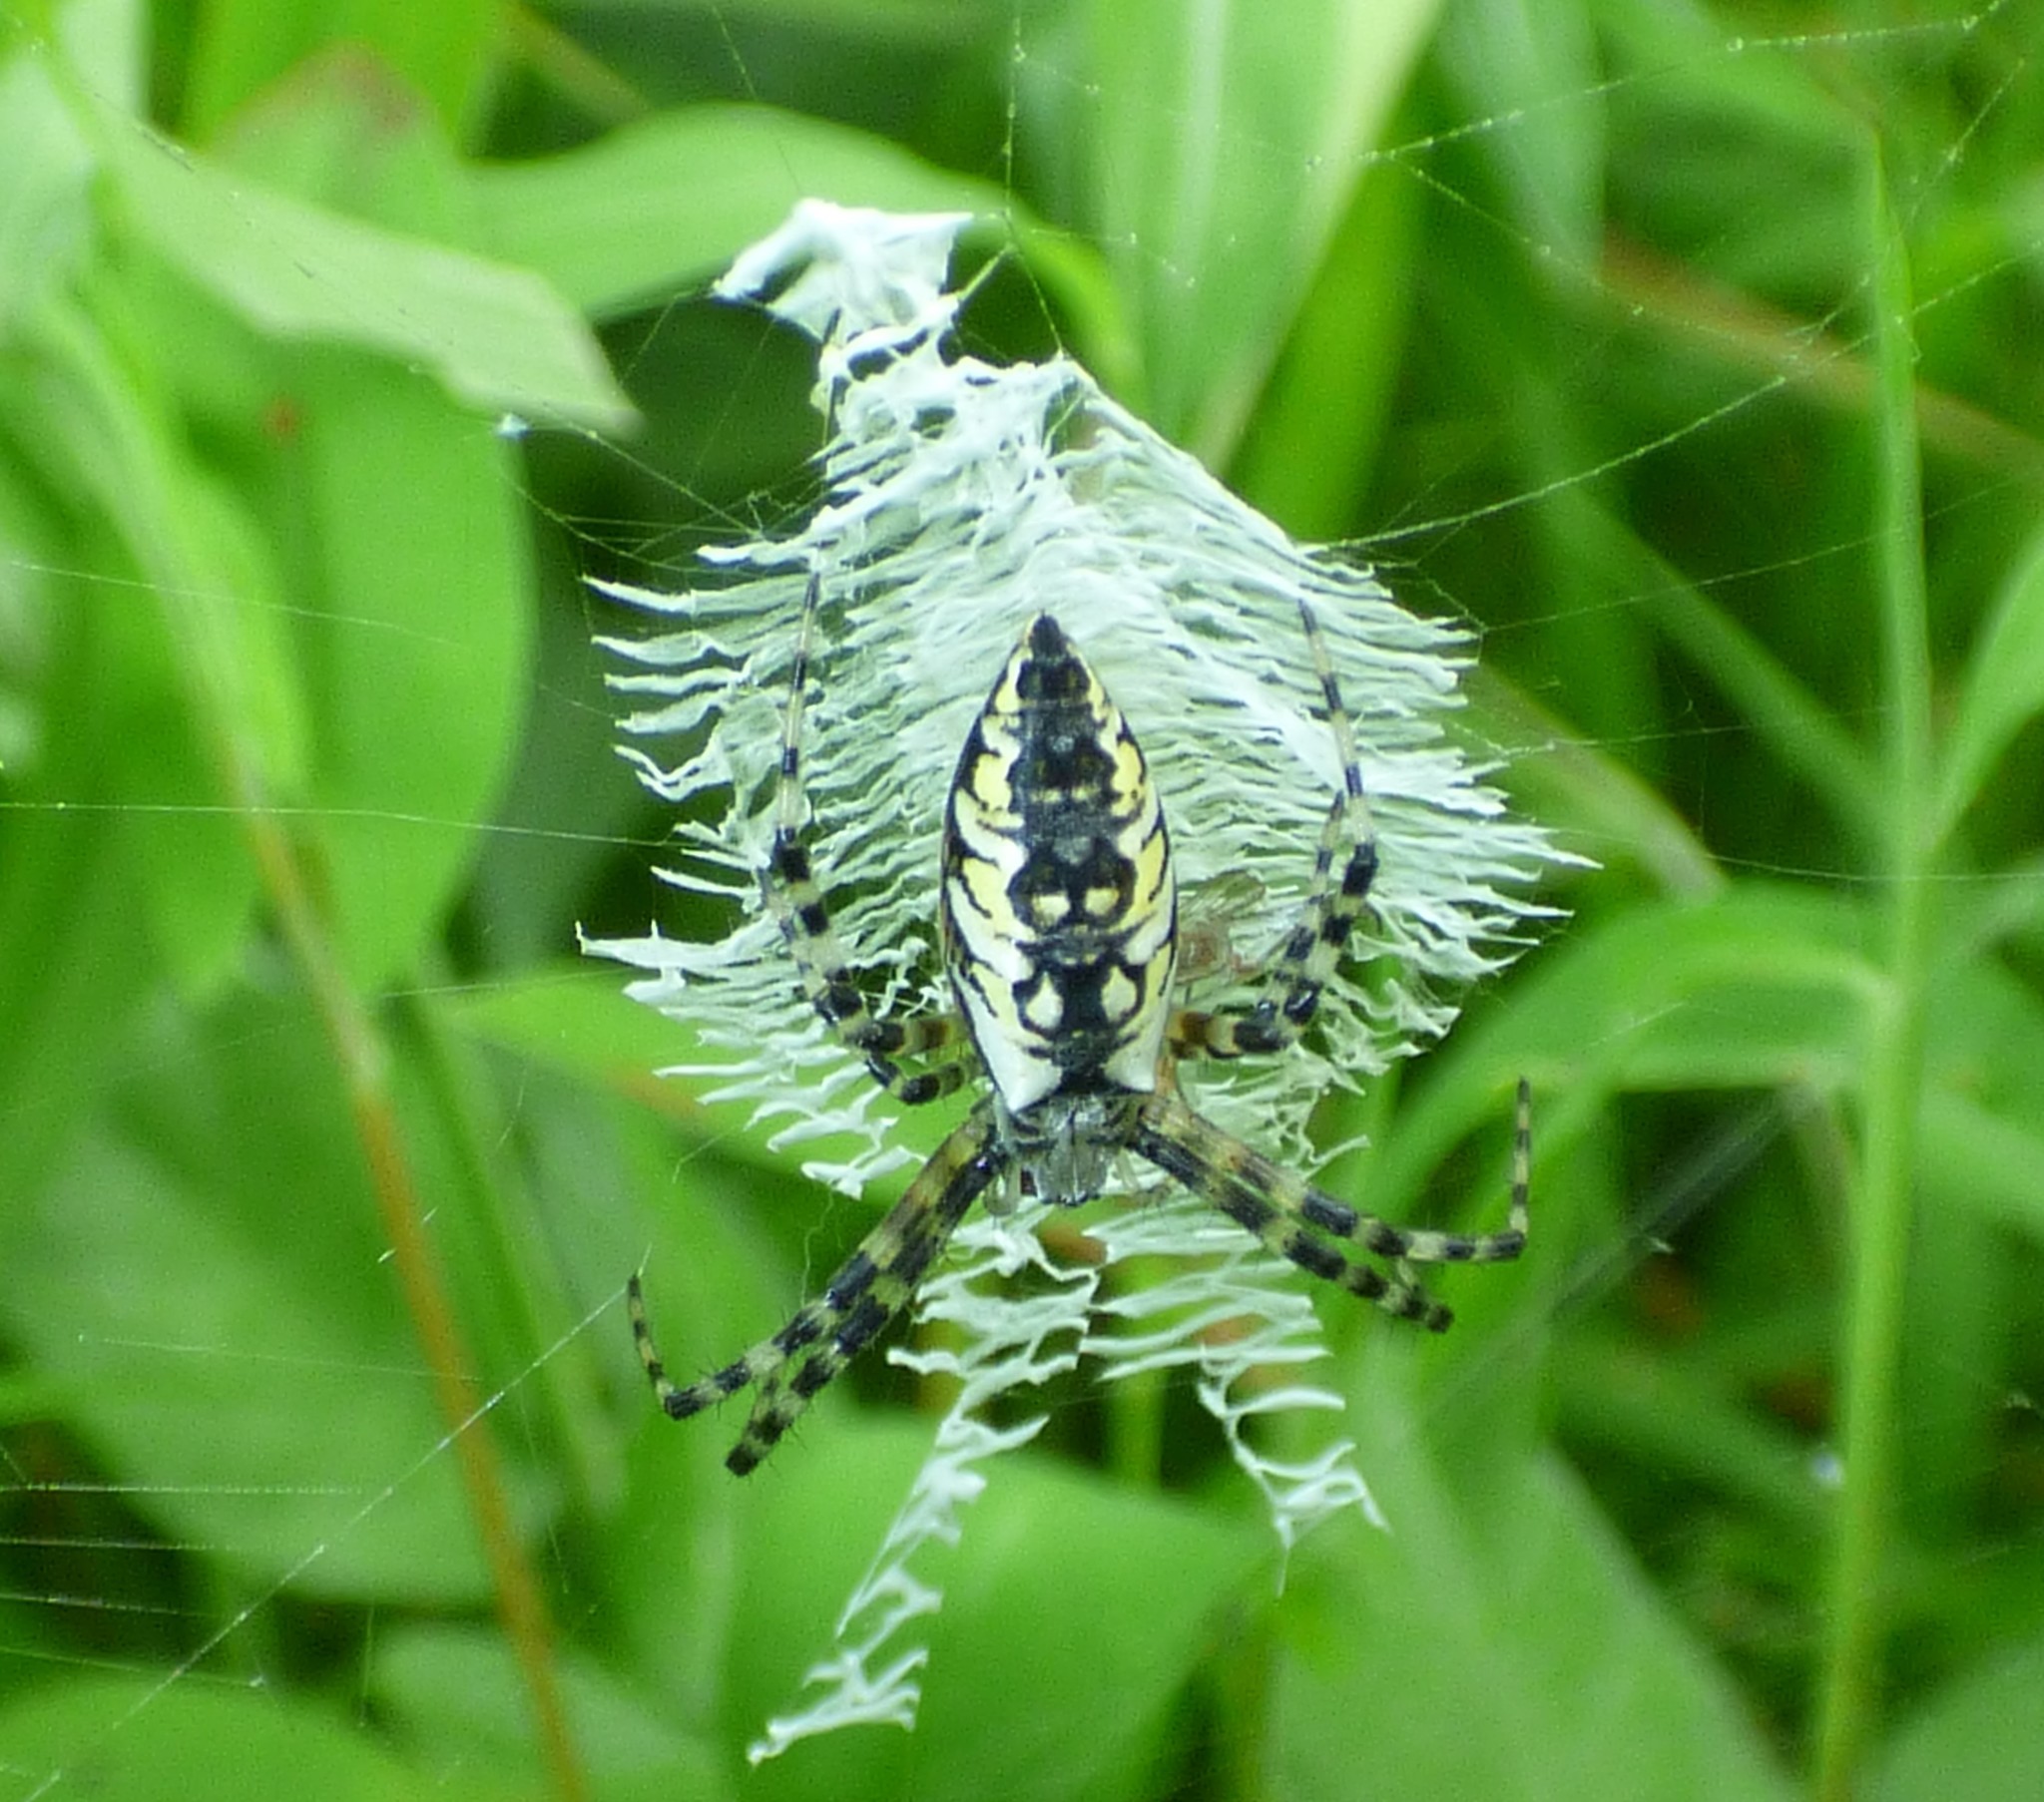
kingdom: Animalia
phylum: Arthropoda
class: Arachnida
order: Araneae
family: Araneidae
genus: Argiope
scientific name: Argiope aurantia
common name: Orb weavers
